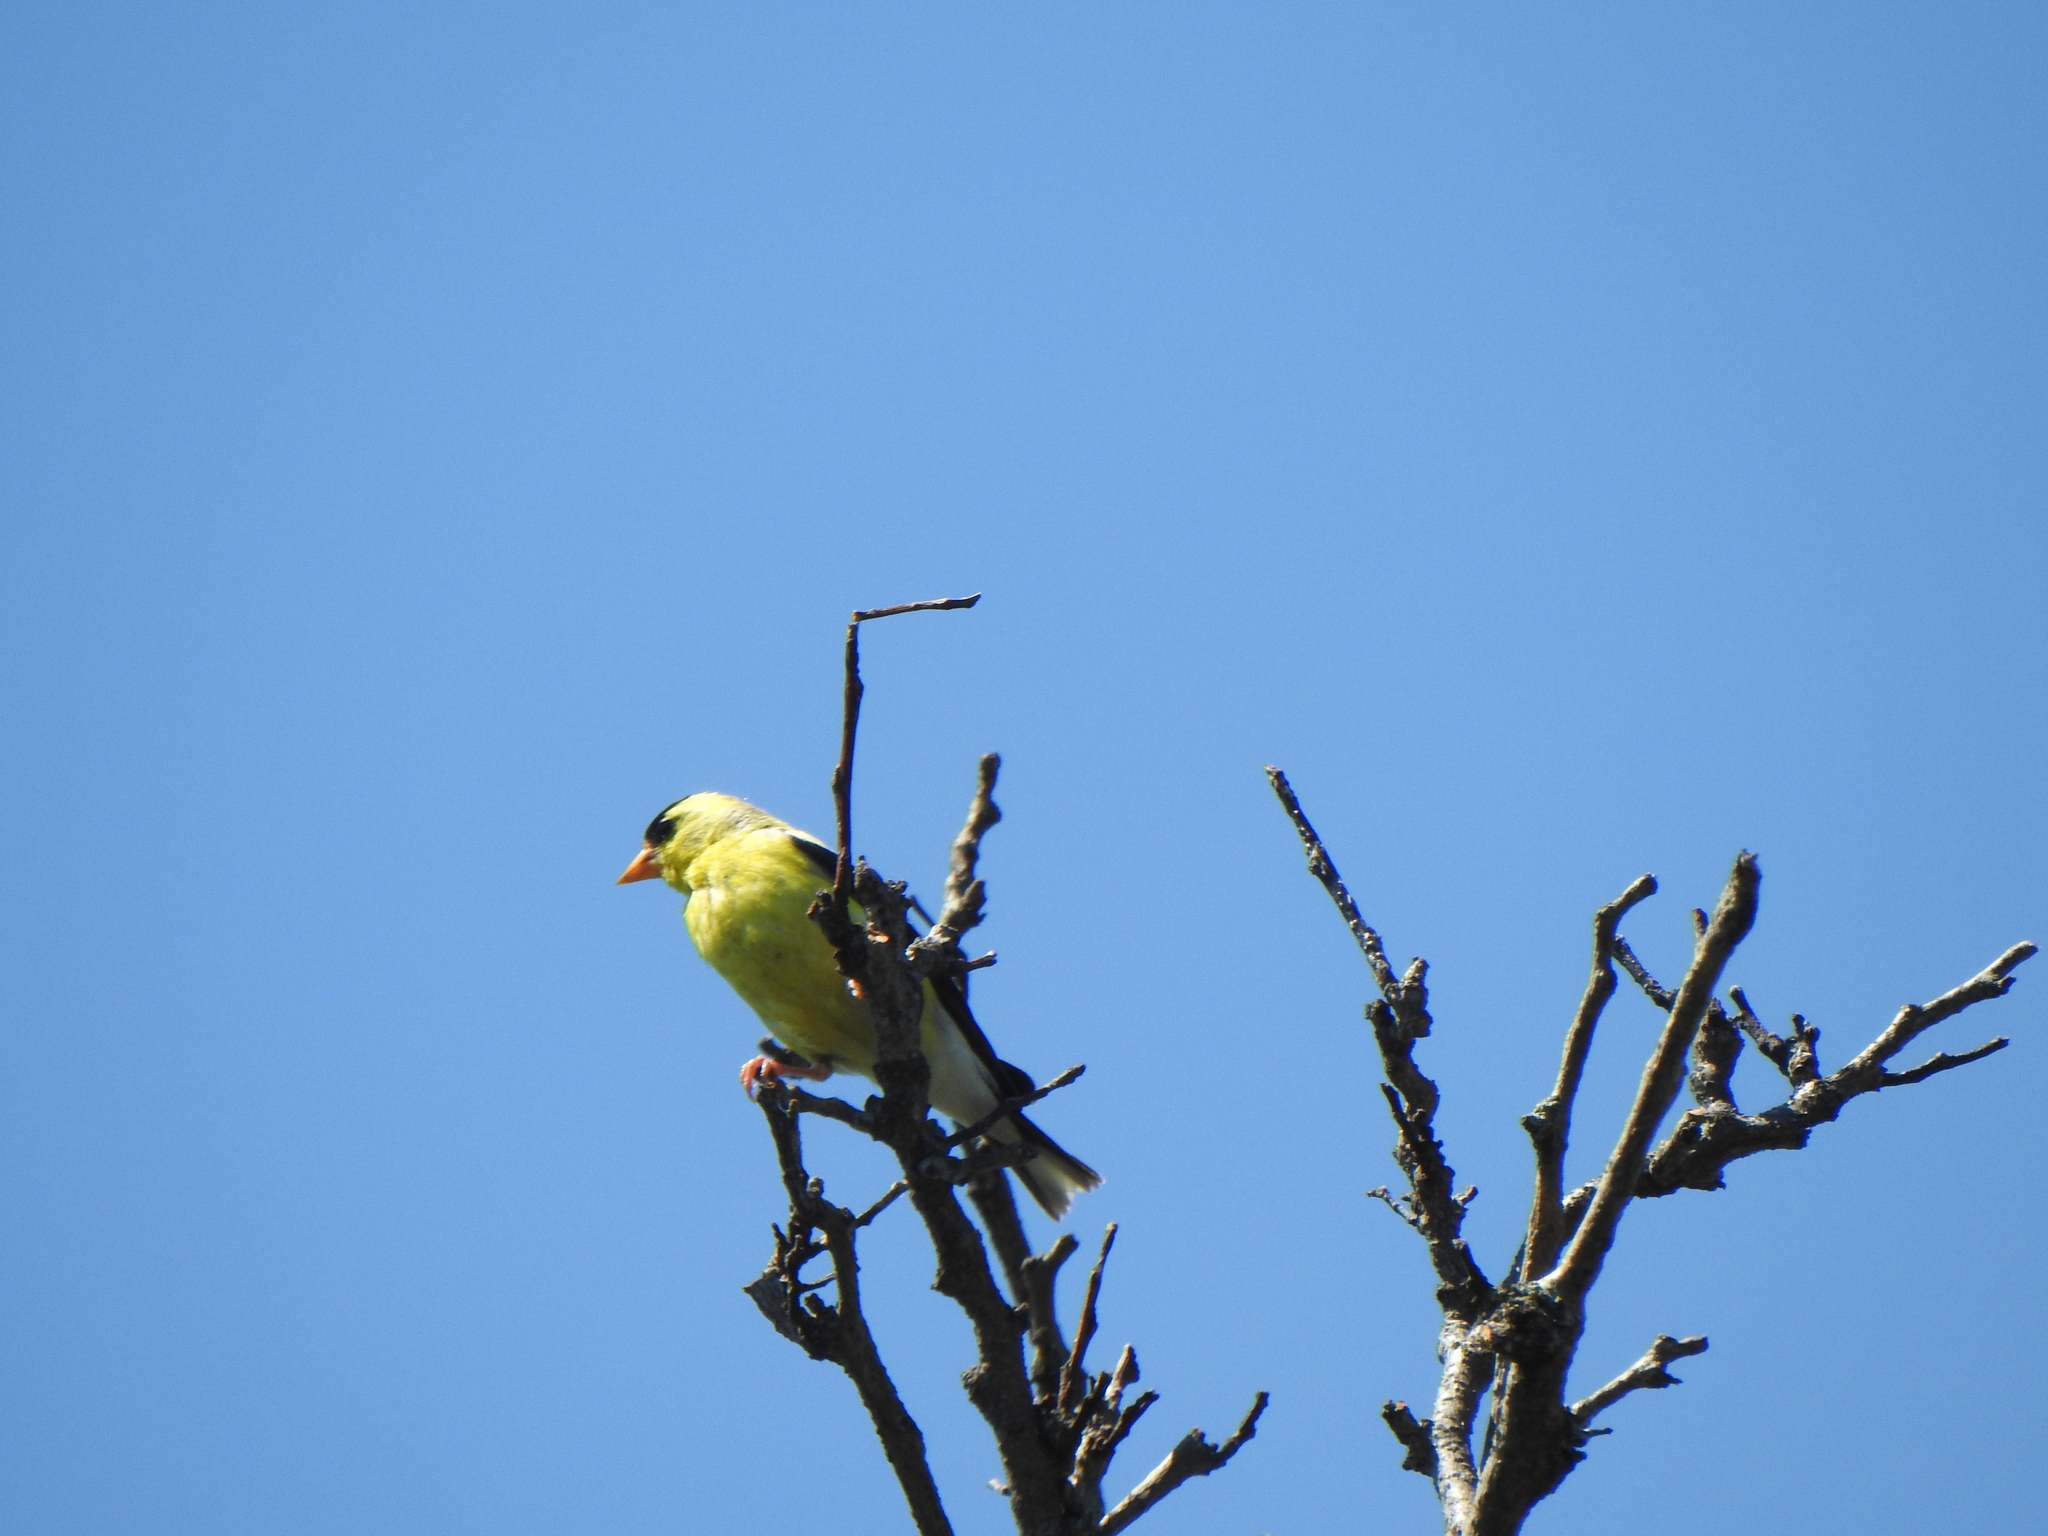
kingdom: Animalia
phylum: Chordata
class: Aves
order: Passeriformes
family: Fringillidae
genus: Spinus
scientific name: Spinus tristis
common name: American goldfinch
